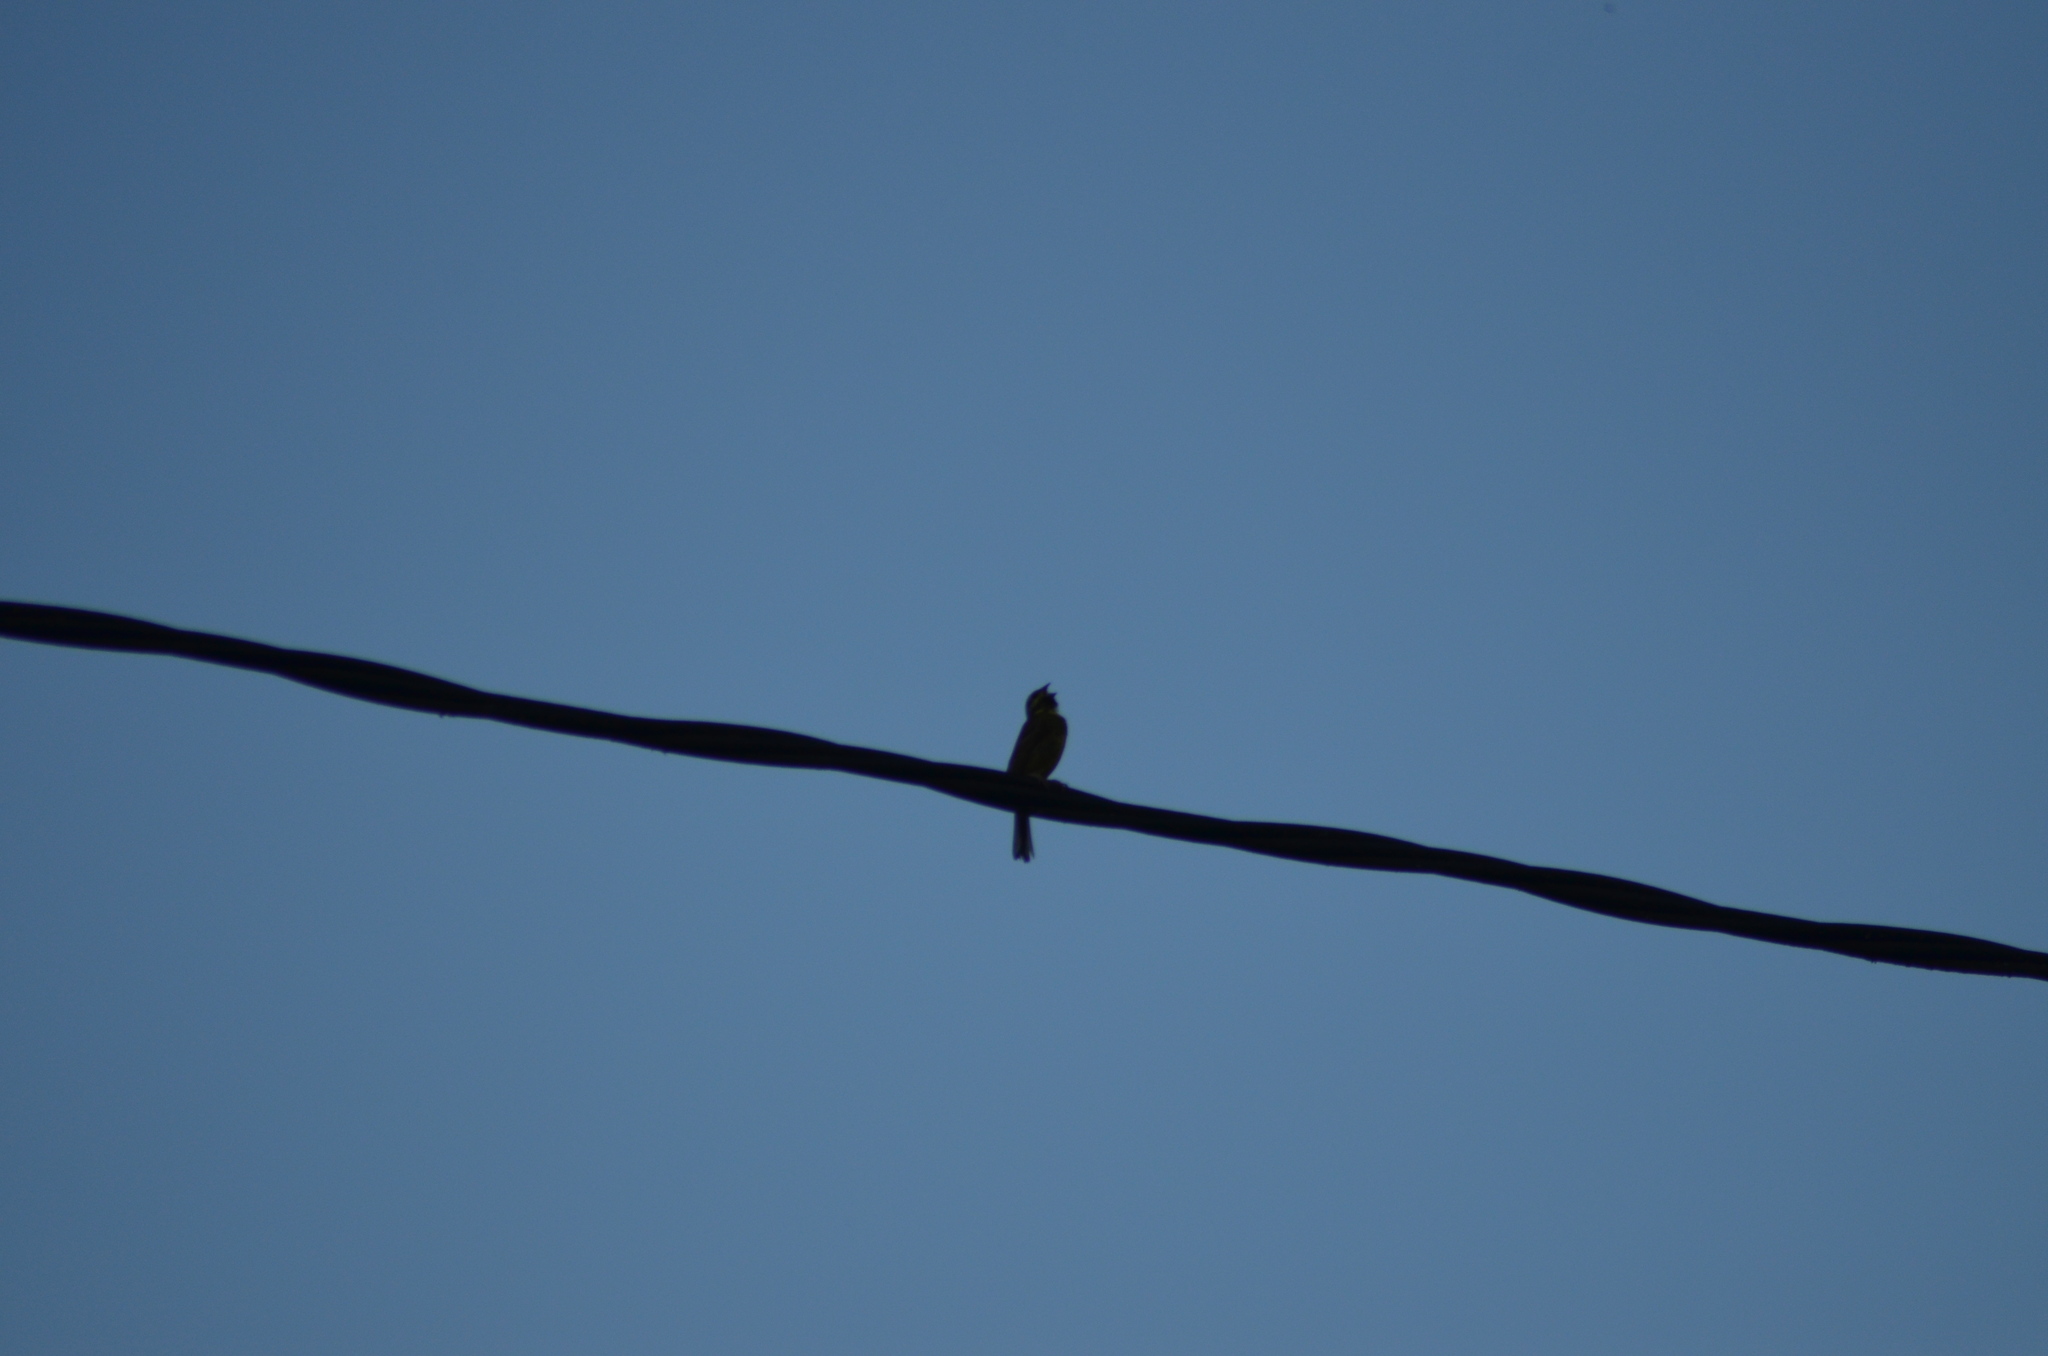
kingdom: Animalia
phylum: Chordata
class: Aves
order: Passeriformes
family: Emberizidae
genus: Emberiza
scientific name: Emberiza cirlus
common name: Cirl bunting
